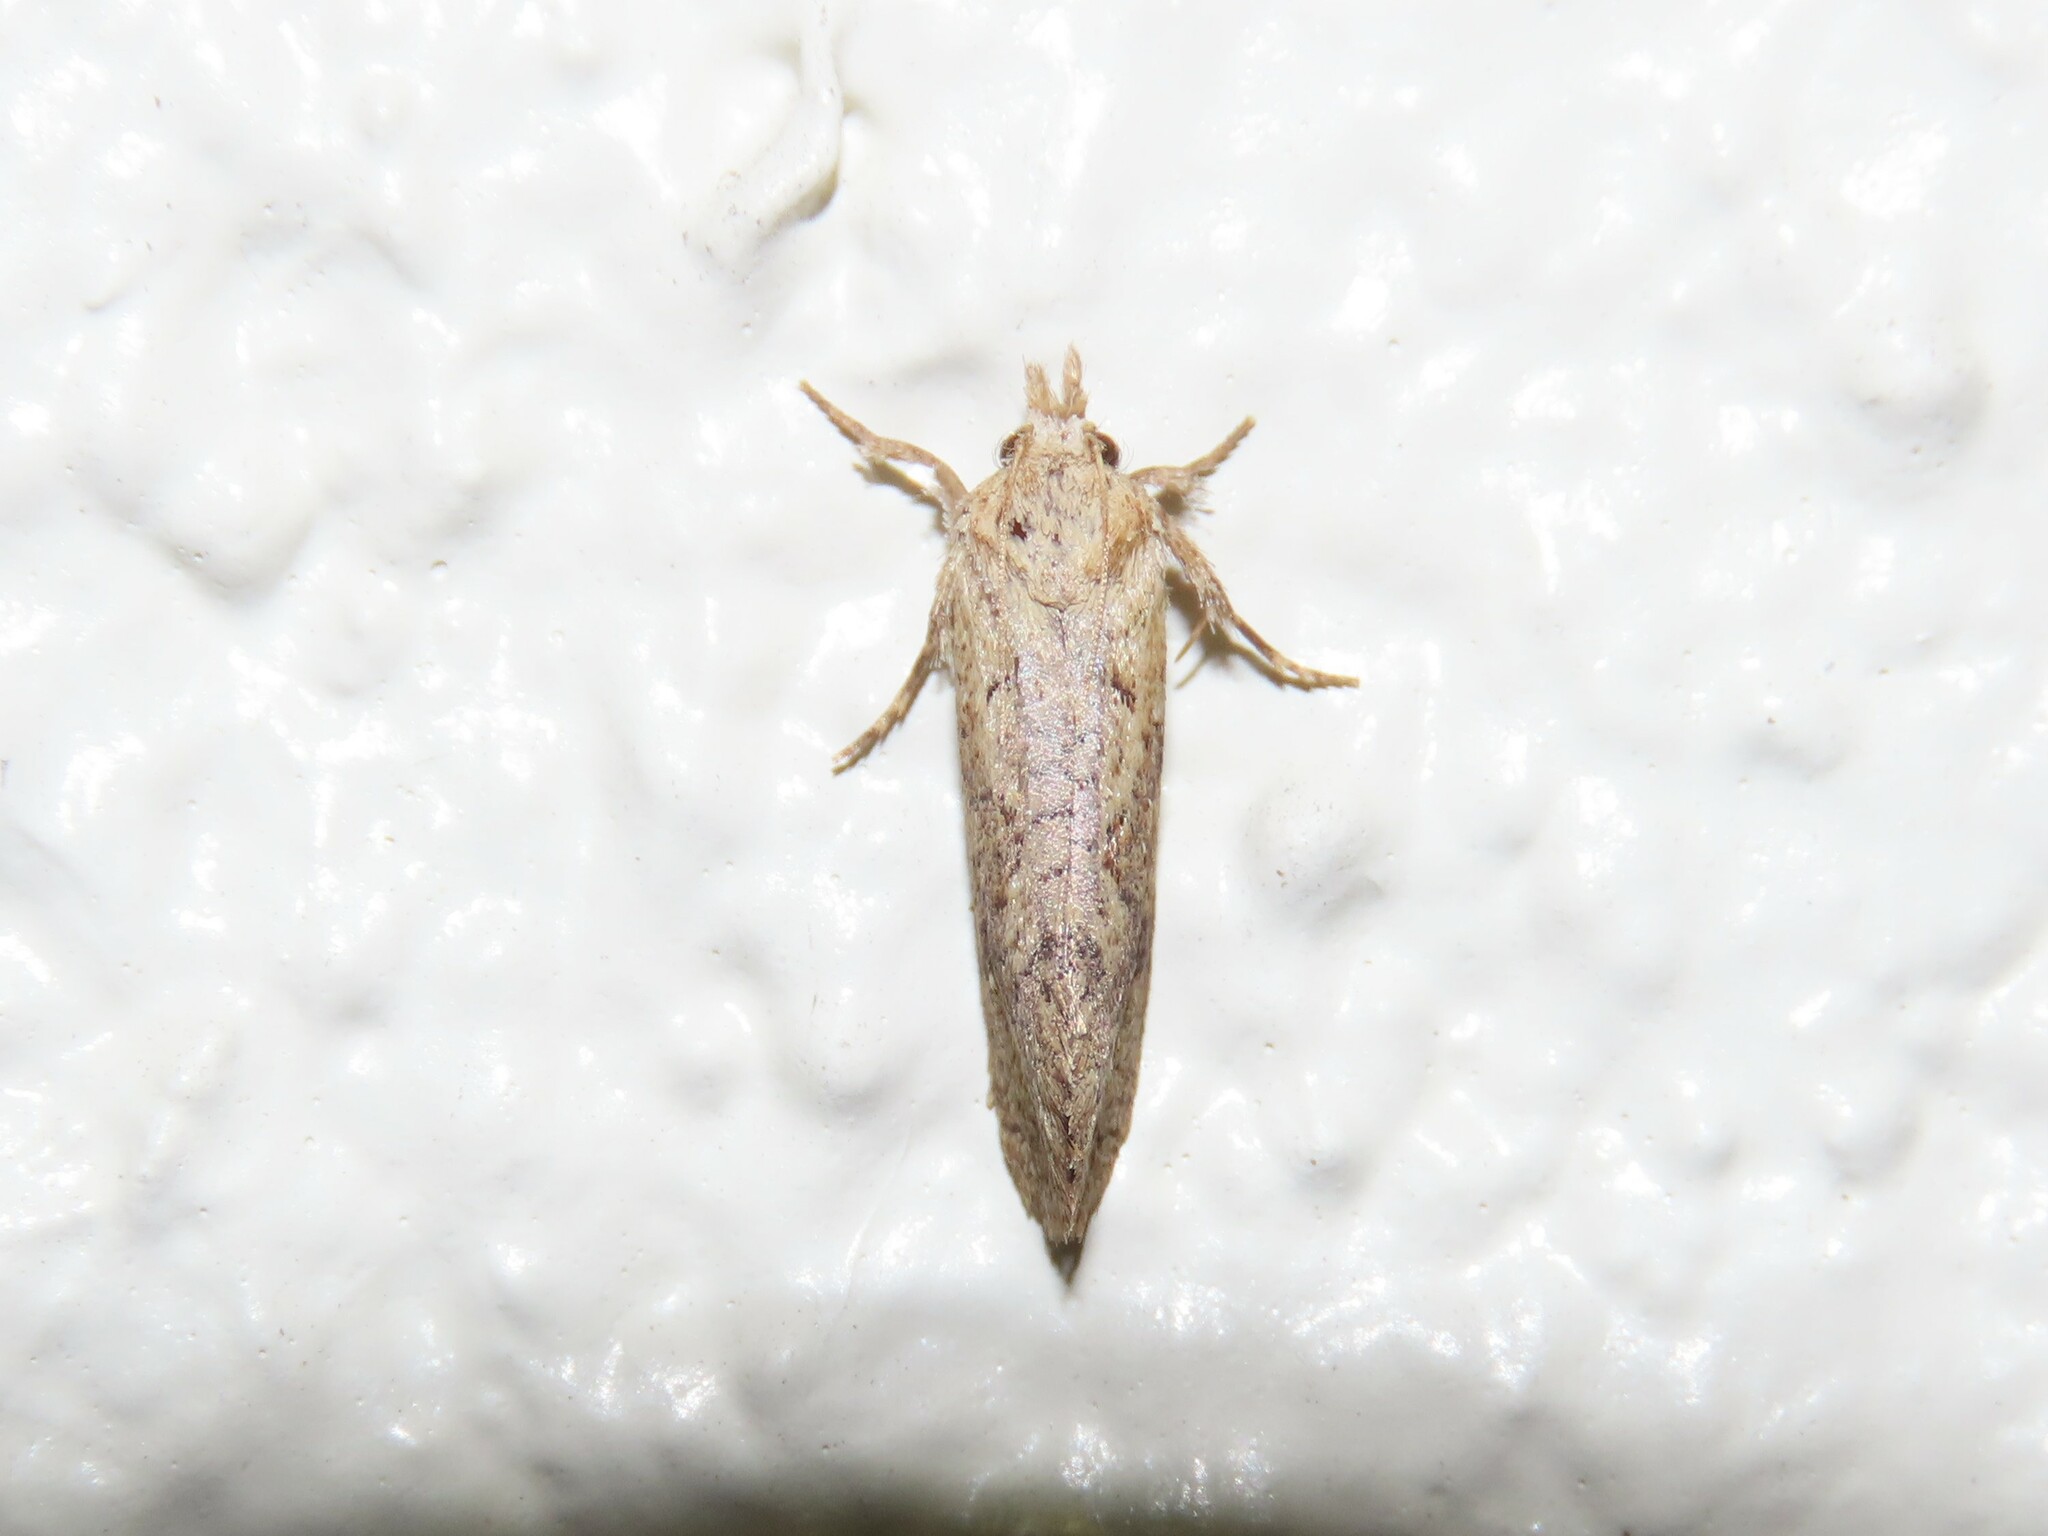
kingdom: Animalia
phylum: Arthropoda
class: Insecta
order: Lepidoptera
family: Tineidae
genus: Acrolophus
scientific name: Acrolophus walsinghami
